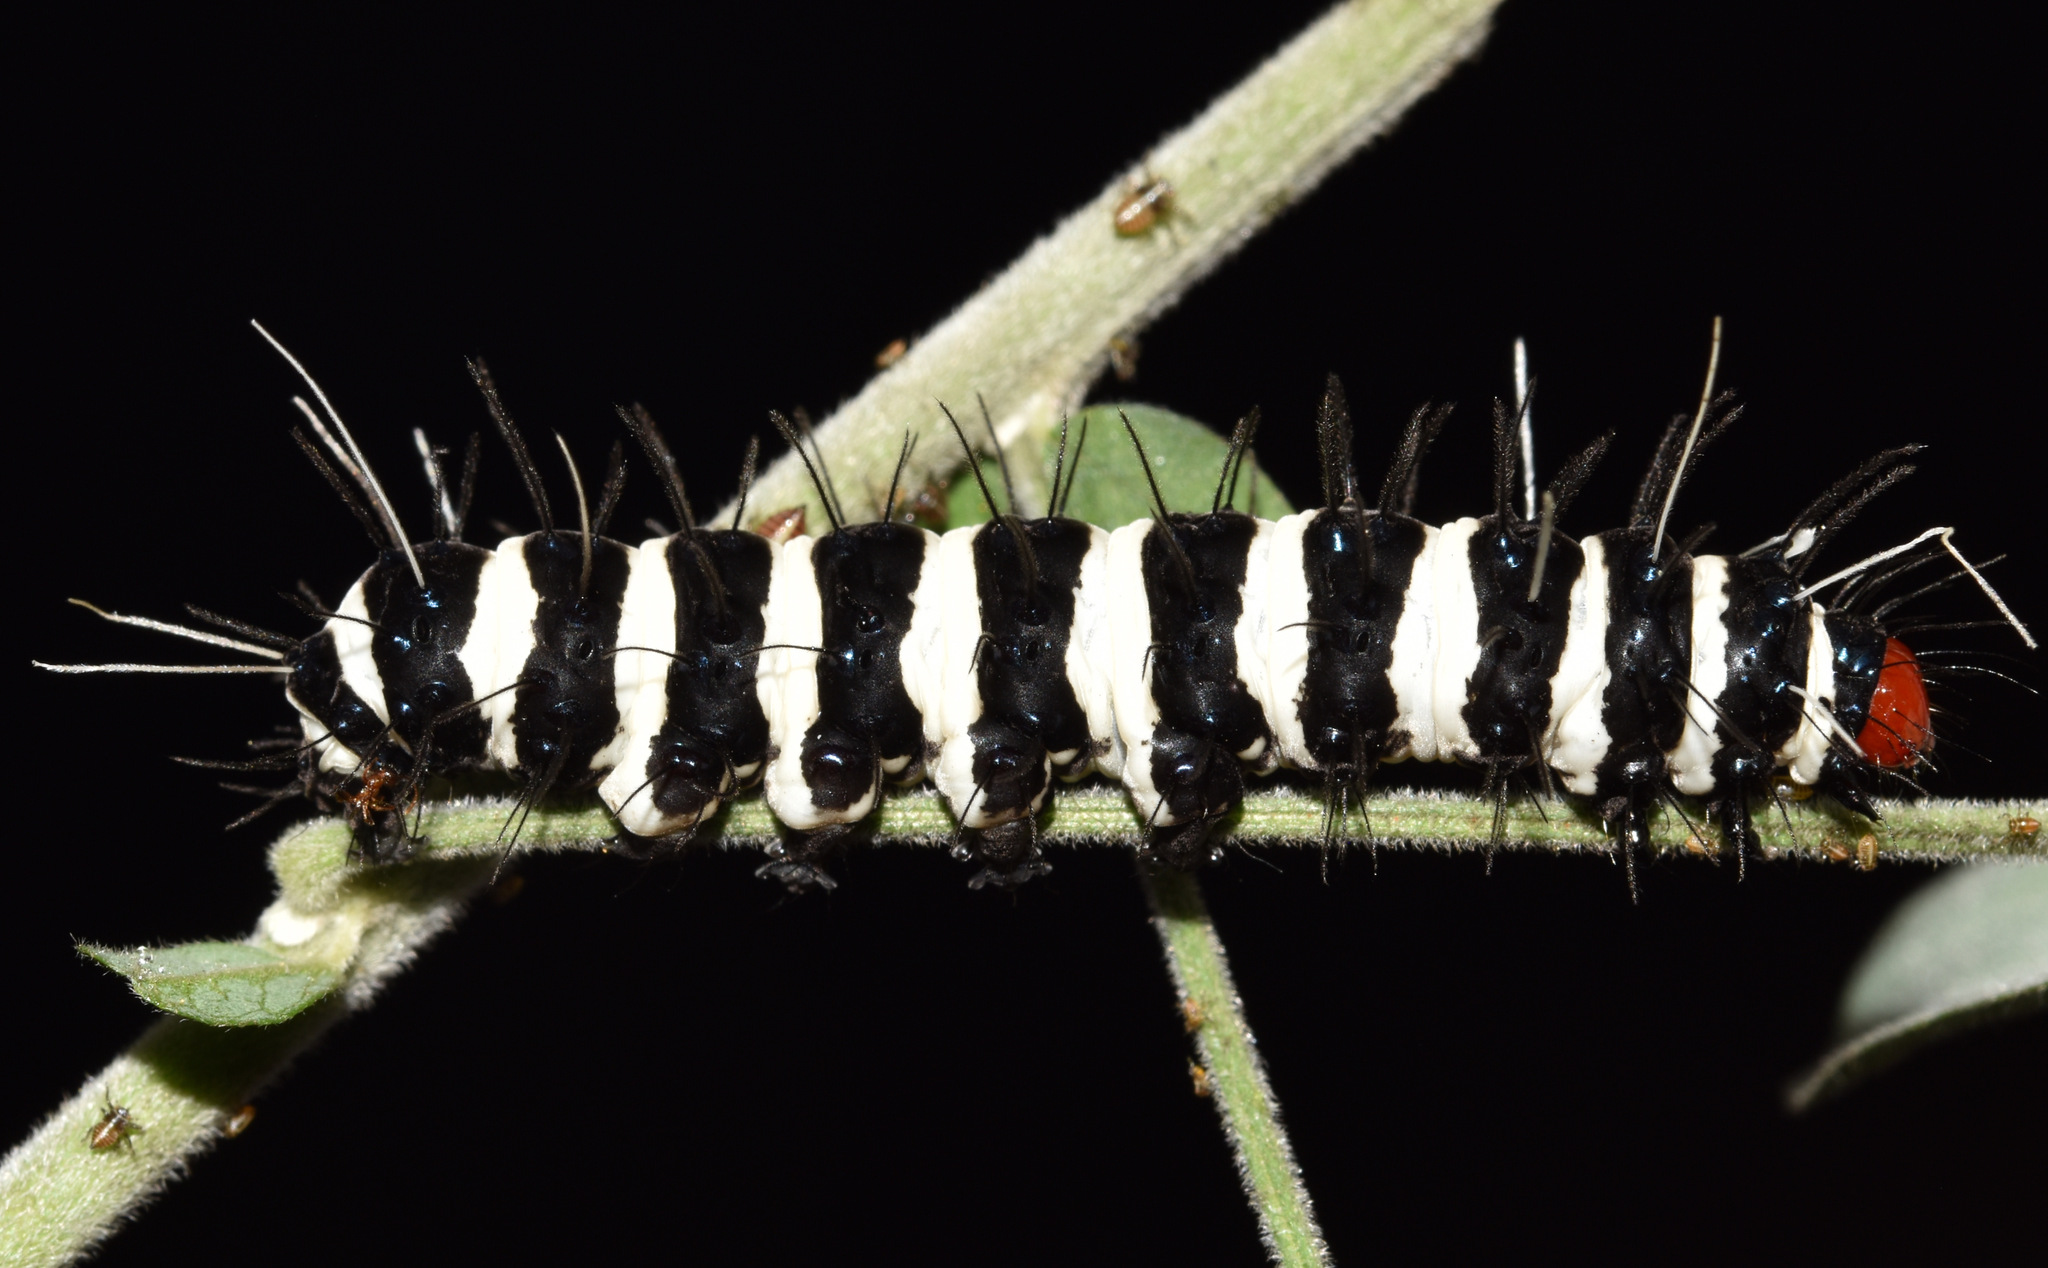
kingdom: Animalia
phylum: Arthropoda
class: Insecta
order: Lepidoptera
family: Erebidae
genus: Amphicallia
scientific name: Amphicallia bellatrix
